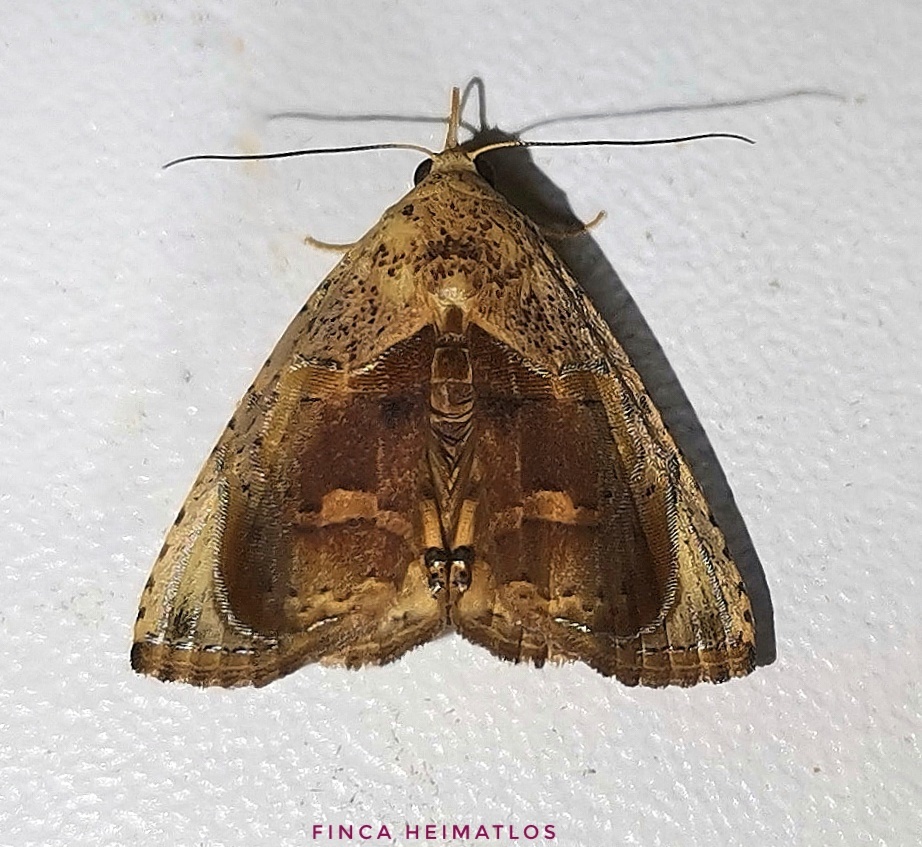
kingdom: Animalia
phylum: Arthropoda
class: Insecta
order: Lepidoptera
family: Erebidae
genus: Calydia
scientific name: Calydia osseata
